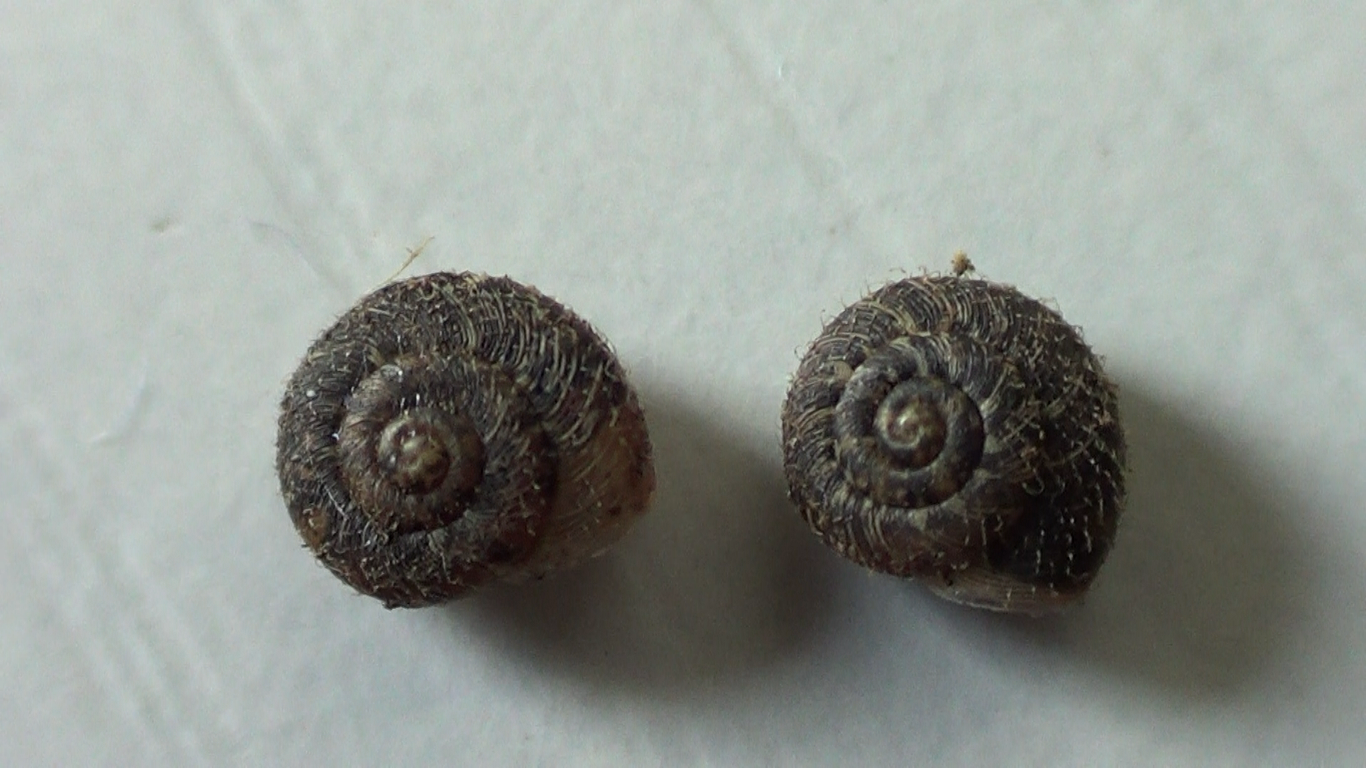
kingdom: Animalia
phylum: Mollusca
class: Gastropoda
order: Stylommatophora
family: Geomitridae
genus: Xerotricha
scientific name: Xerotricha conspurcata
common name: Snail
